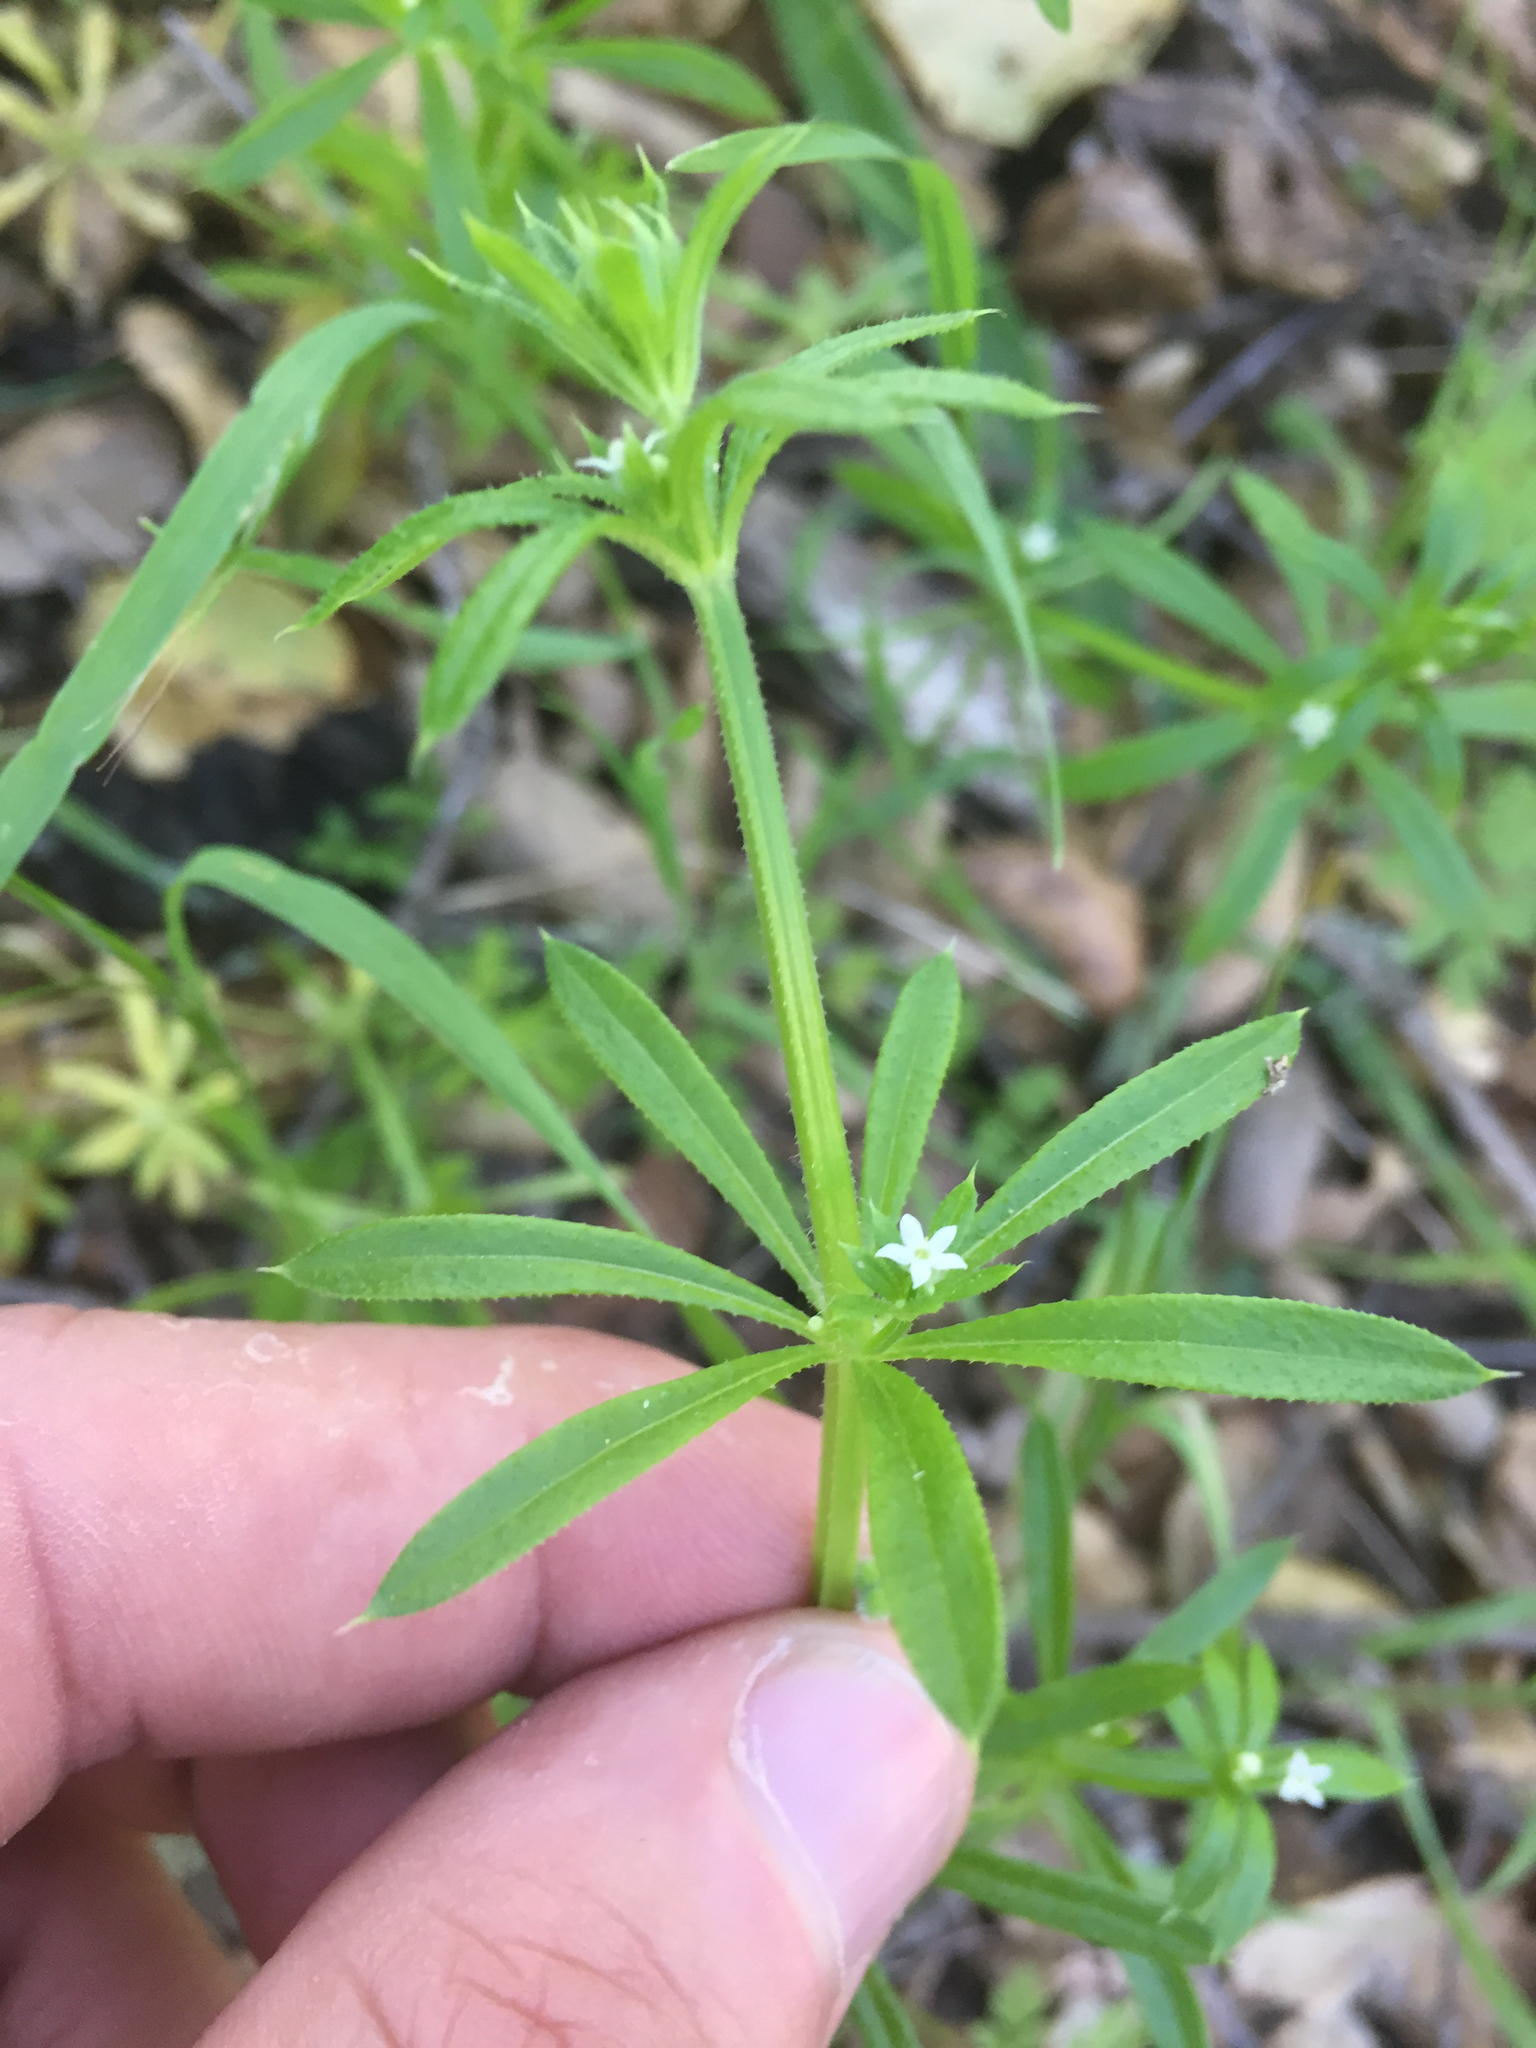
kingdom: Plantae
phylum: Tracheophyta
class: Magnoliopsida
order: Gentianales
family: Rubiaceae
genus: Galium
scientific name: Galium aparine
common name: Cleavers
